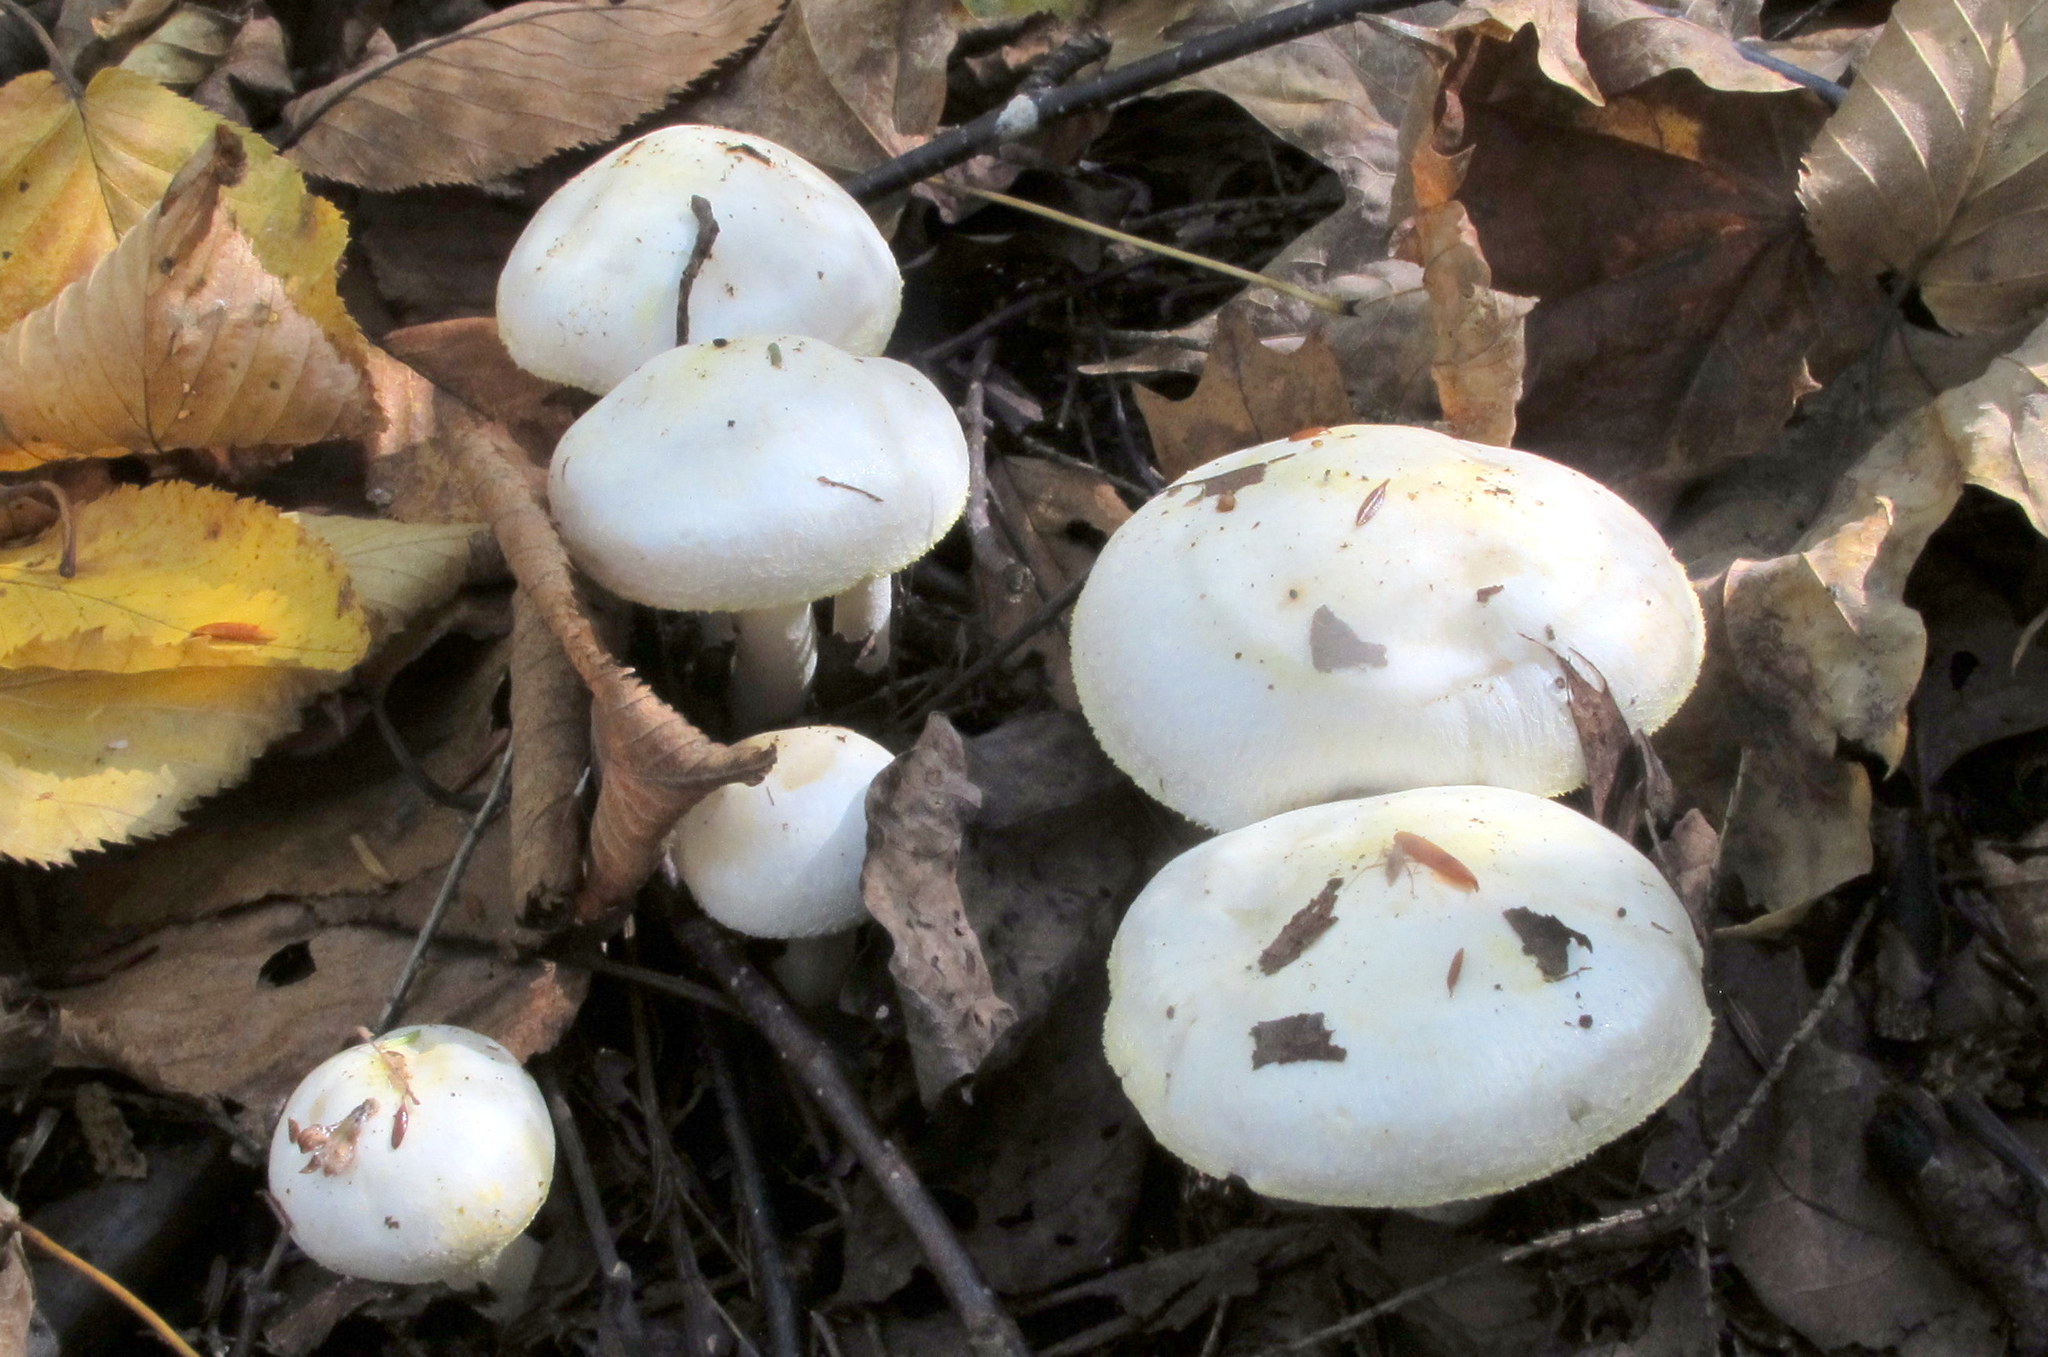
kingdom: Fungi
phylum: Basidiomycota
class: Agaricomycetes
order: Agaricales
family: Hygrophoraceae
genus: Hygrophorus
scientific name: Hygrophorus chrysodon
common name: Gold flecked woodwax
